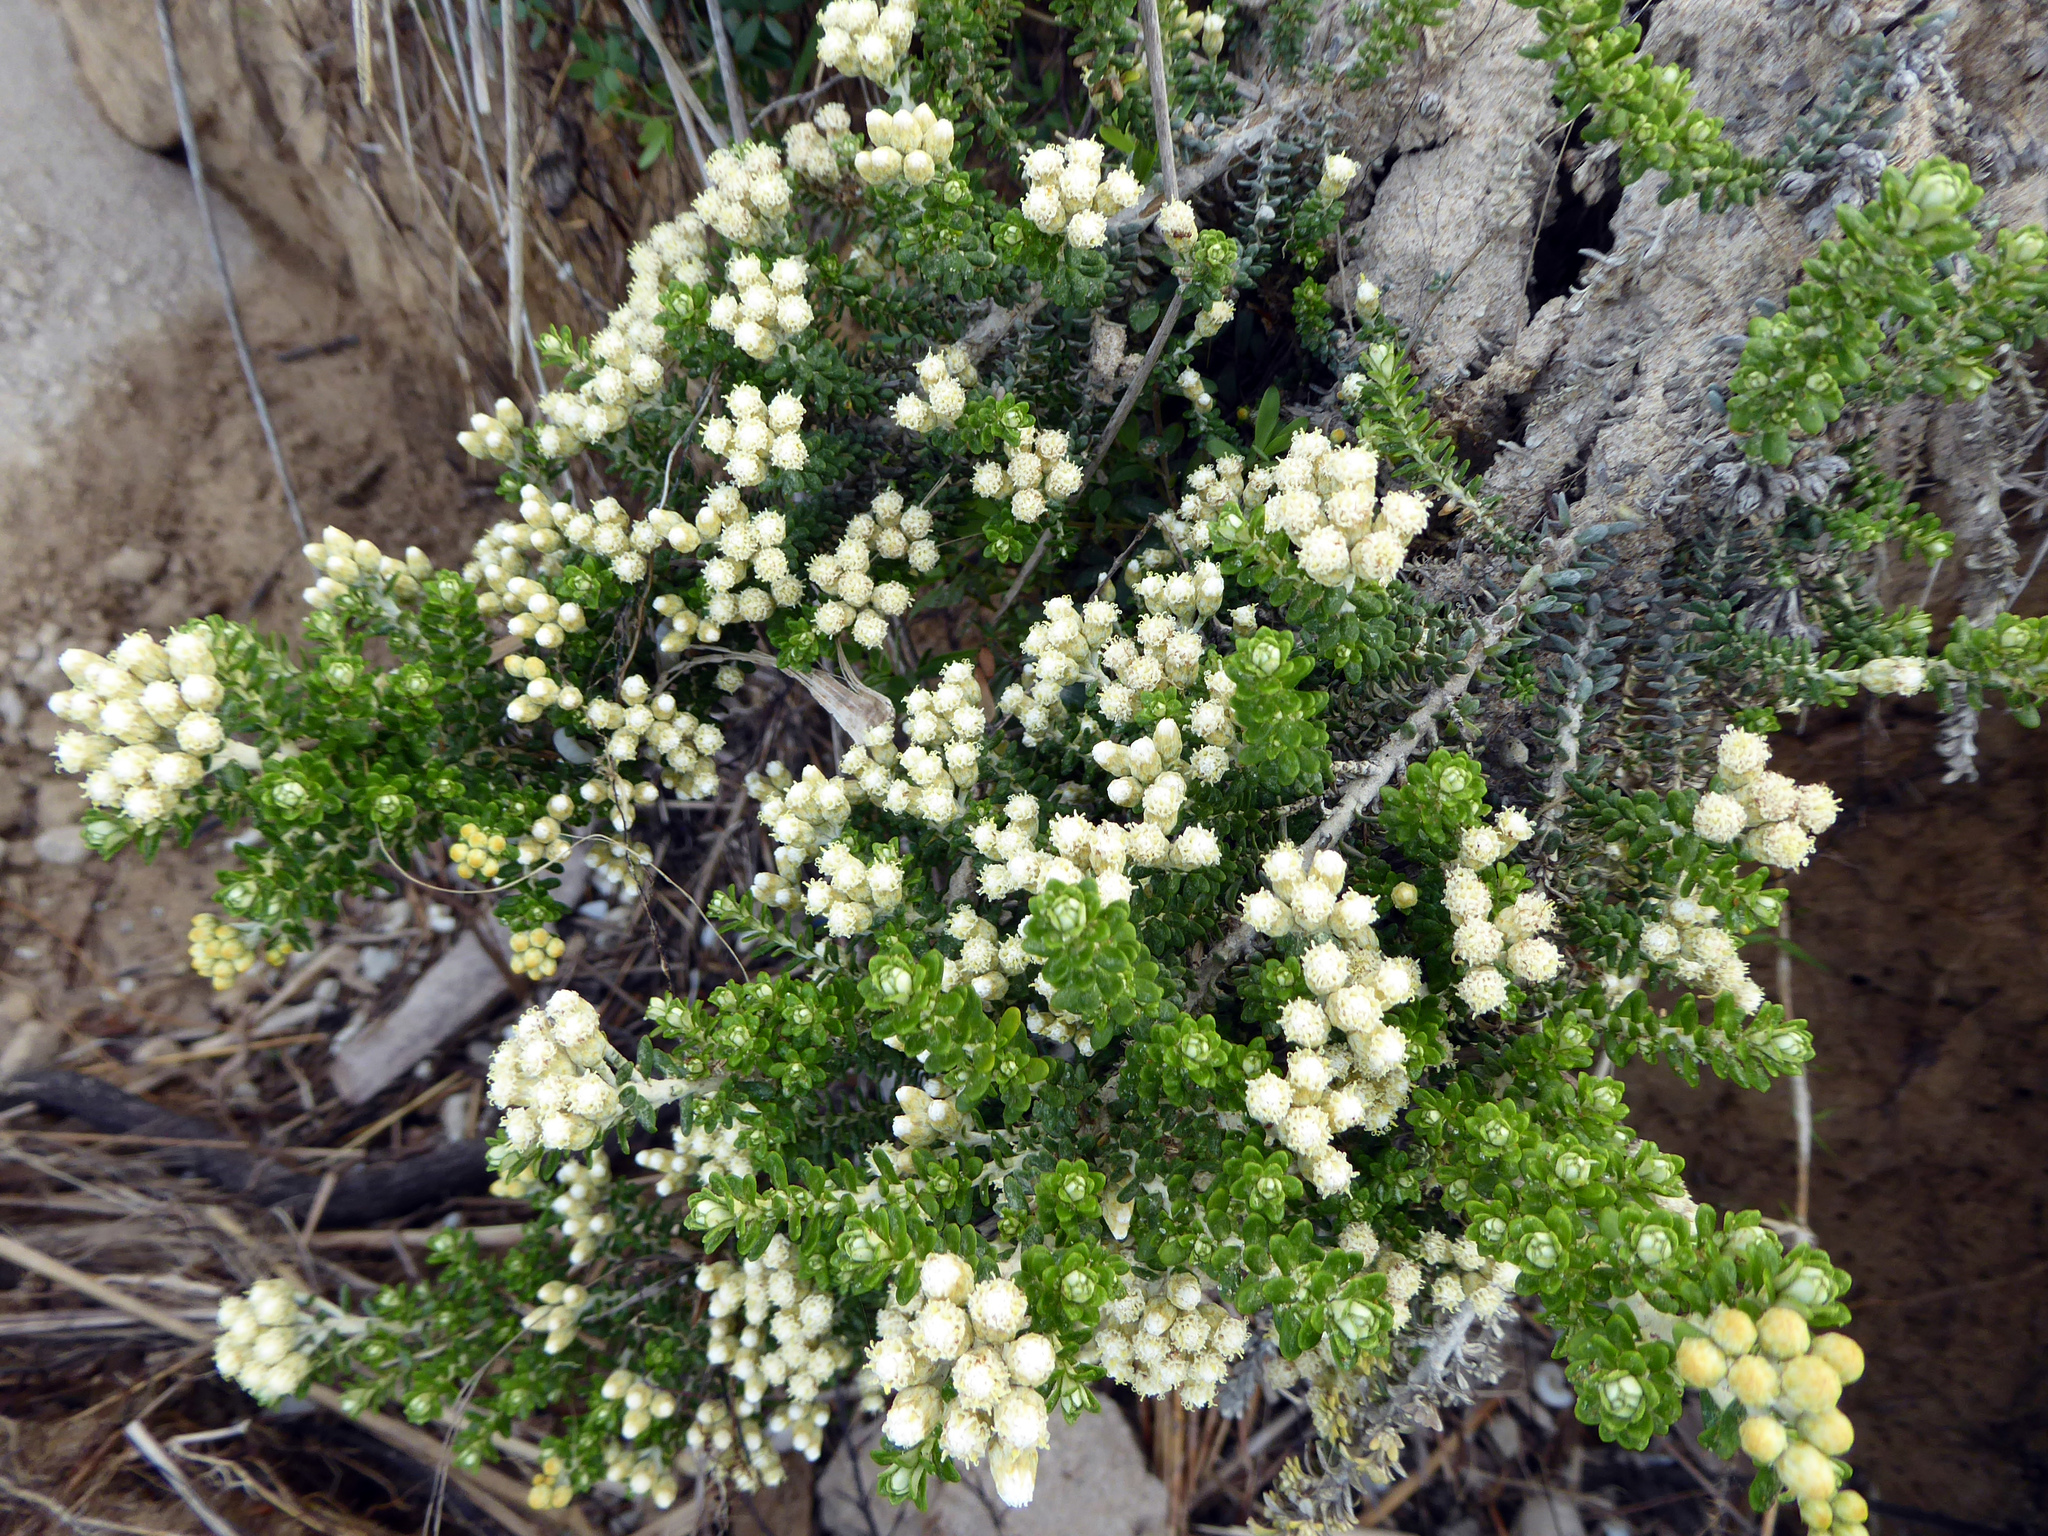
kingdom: Plantae
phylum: Tracheophyta
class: Magnoliopsida
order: Asterales
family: Asteraceae
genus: Ozothamnus
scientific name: Ozothamnus leptophyllus
